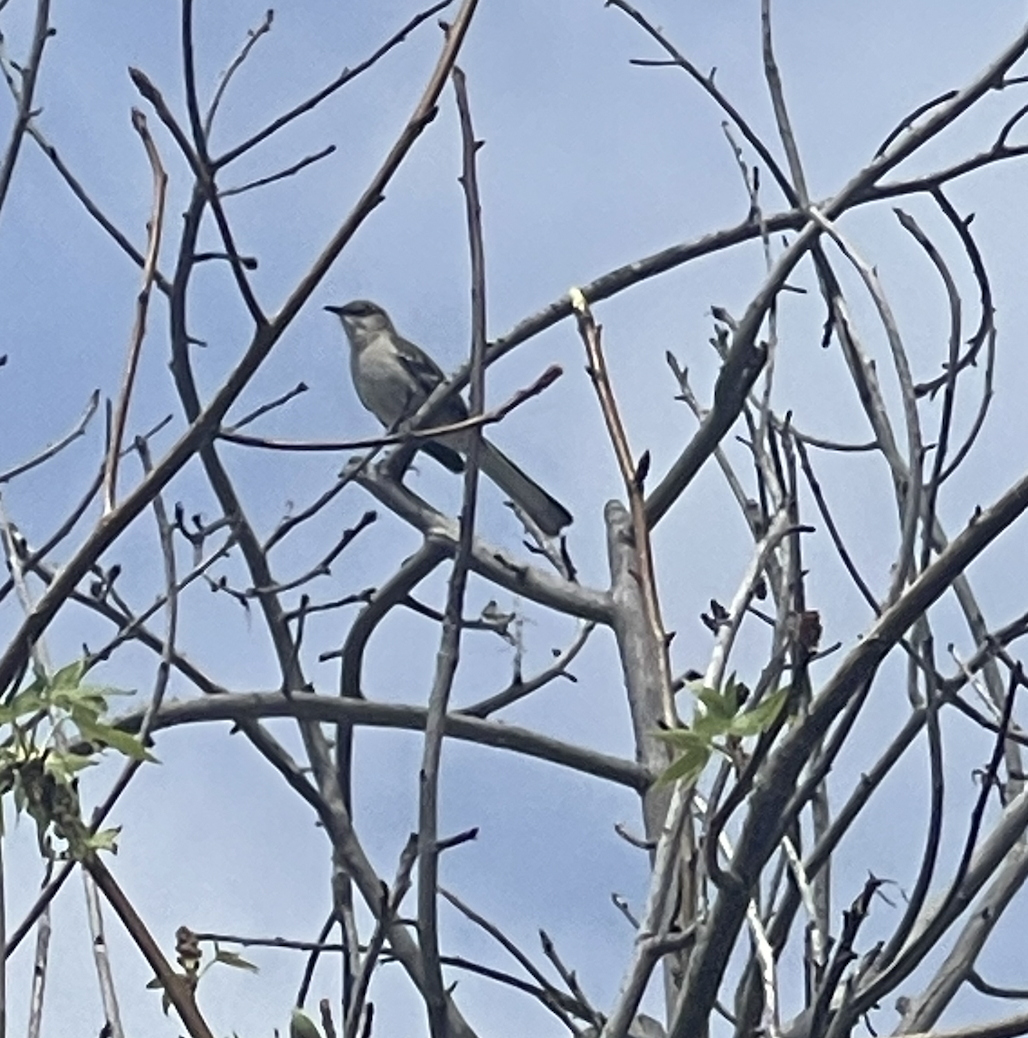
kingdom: Animalia
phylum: Chordata
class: Aves
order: Passeriformes
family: Mimidae
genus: Mimus
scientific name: Mimus polyglottos
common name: Northern mockingbird
